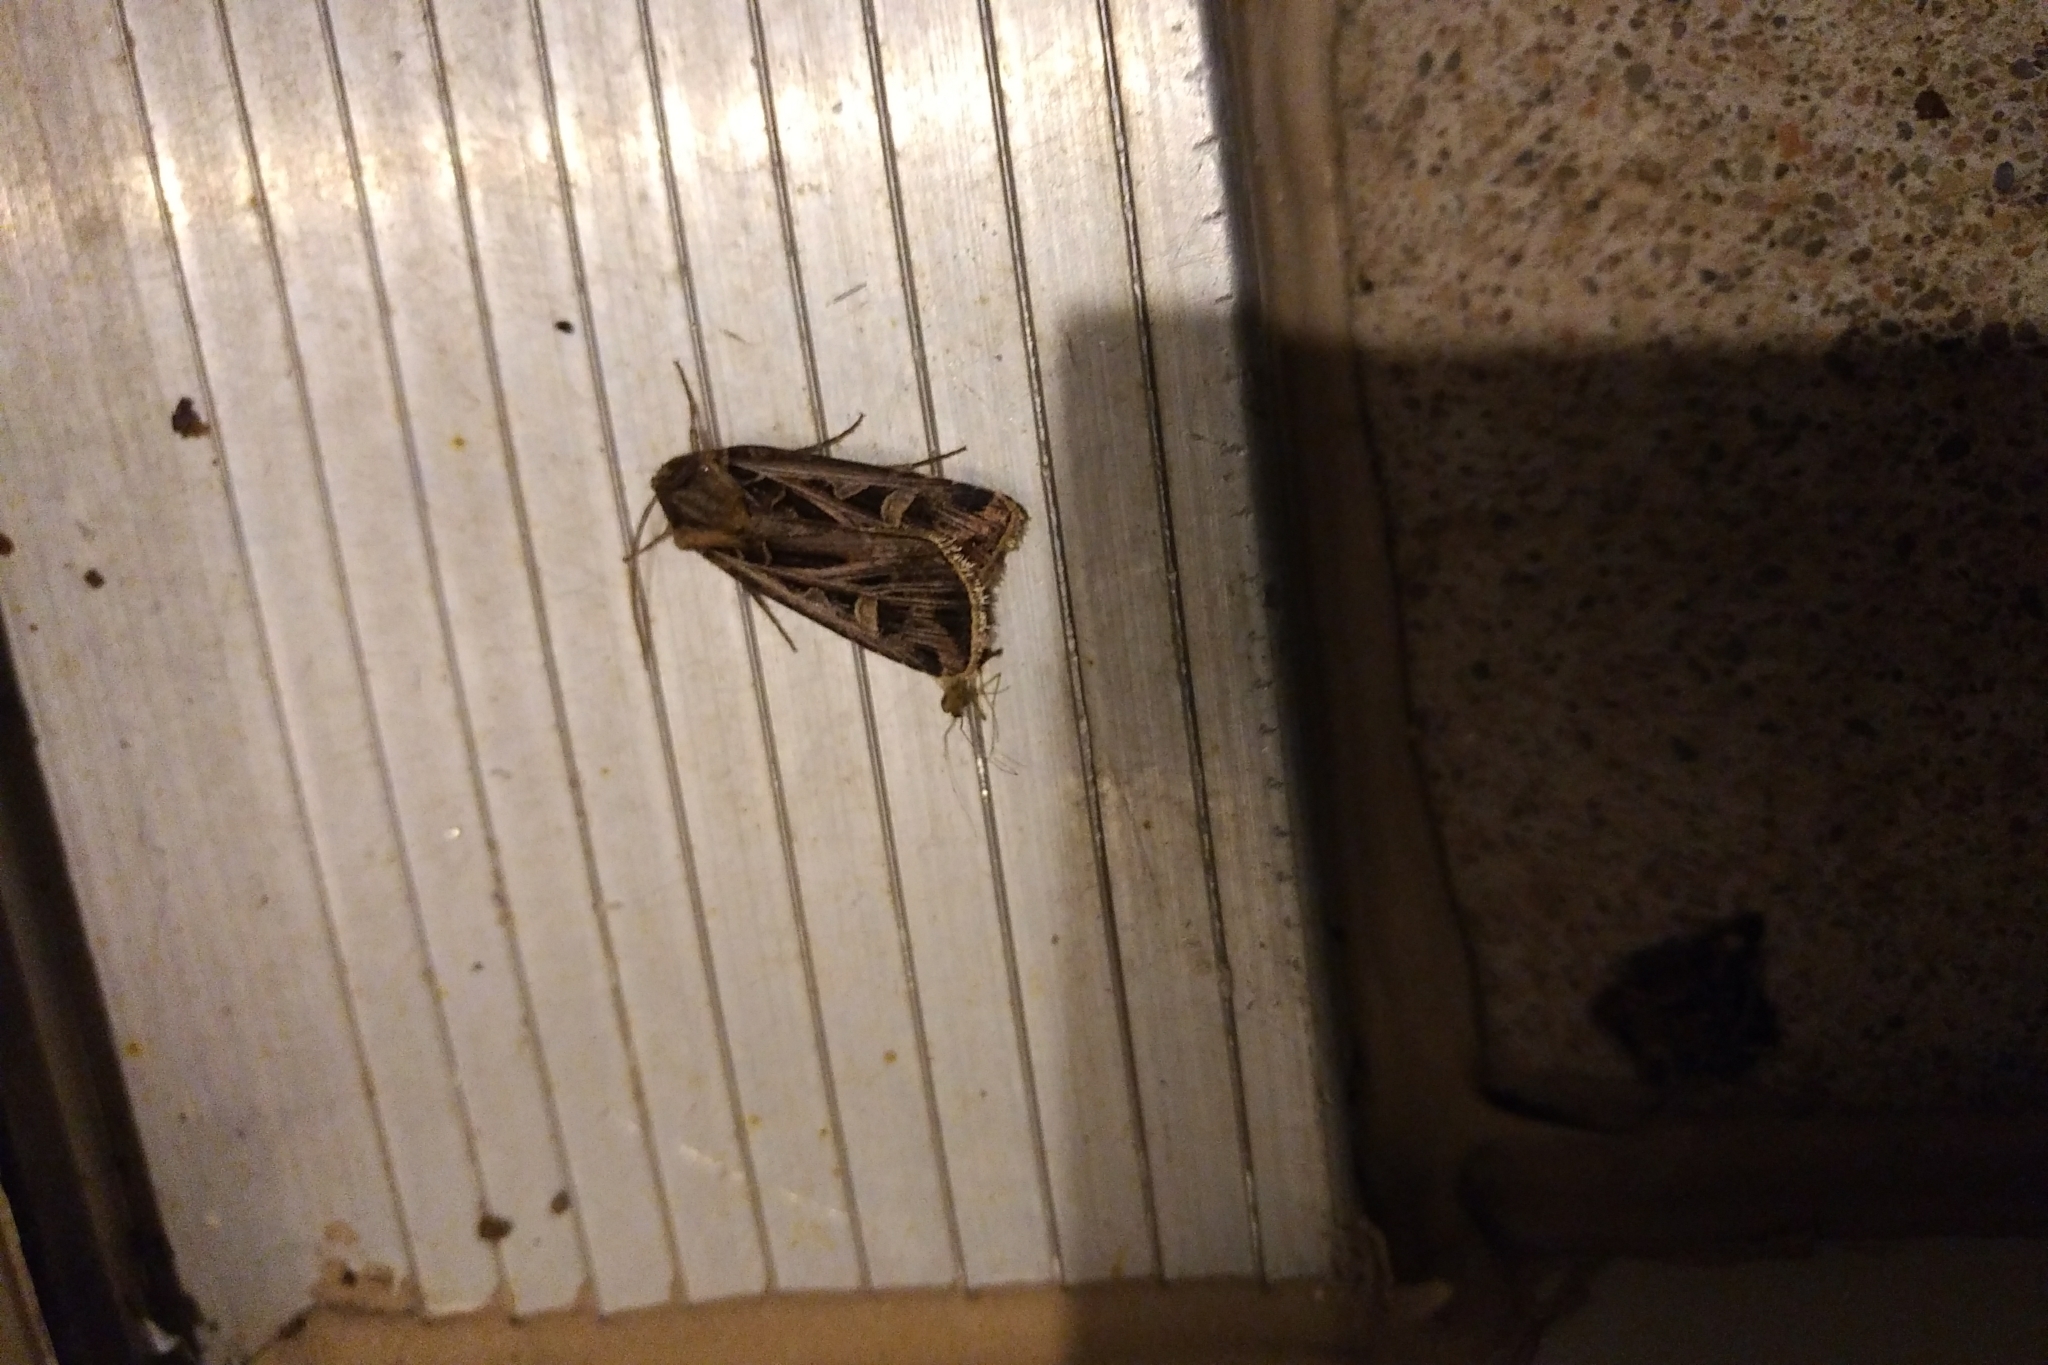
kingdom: Animalia
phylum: Arthropoda
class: Insecta
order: Lepidoptera
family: Noctuidae
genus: Feltia
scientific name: Feltia jaculifera
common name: Dingy cutworm moth
